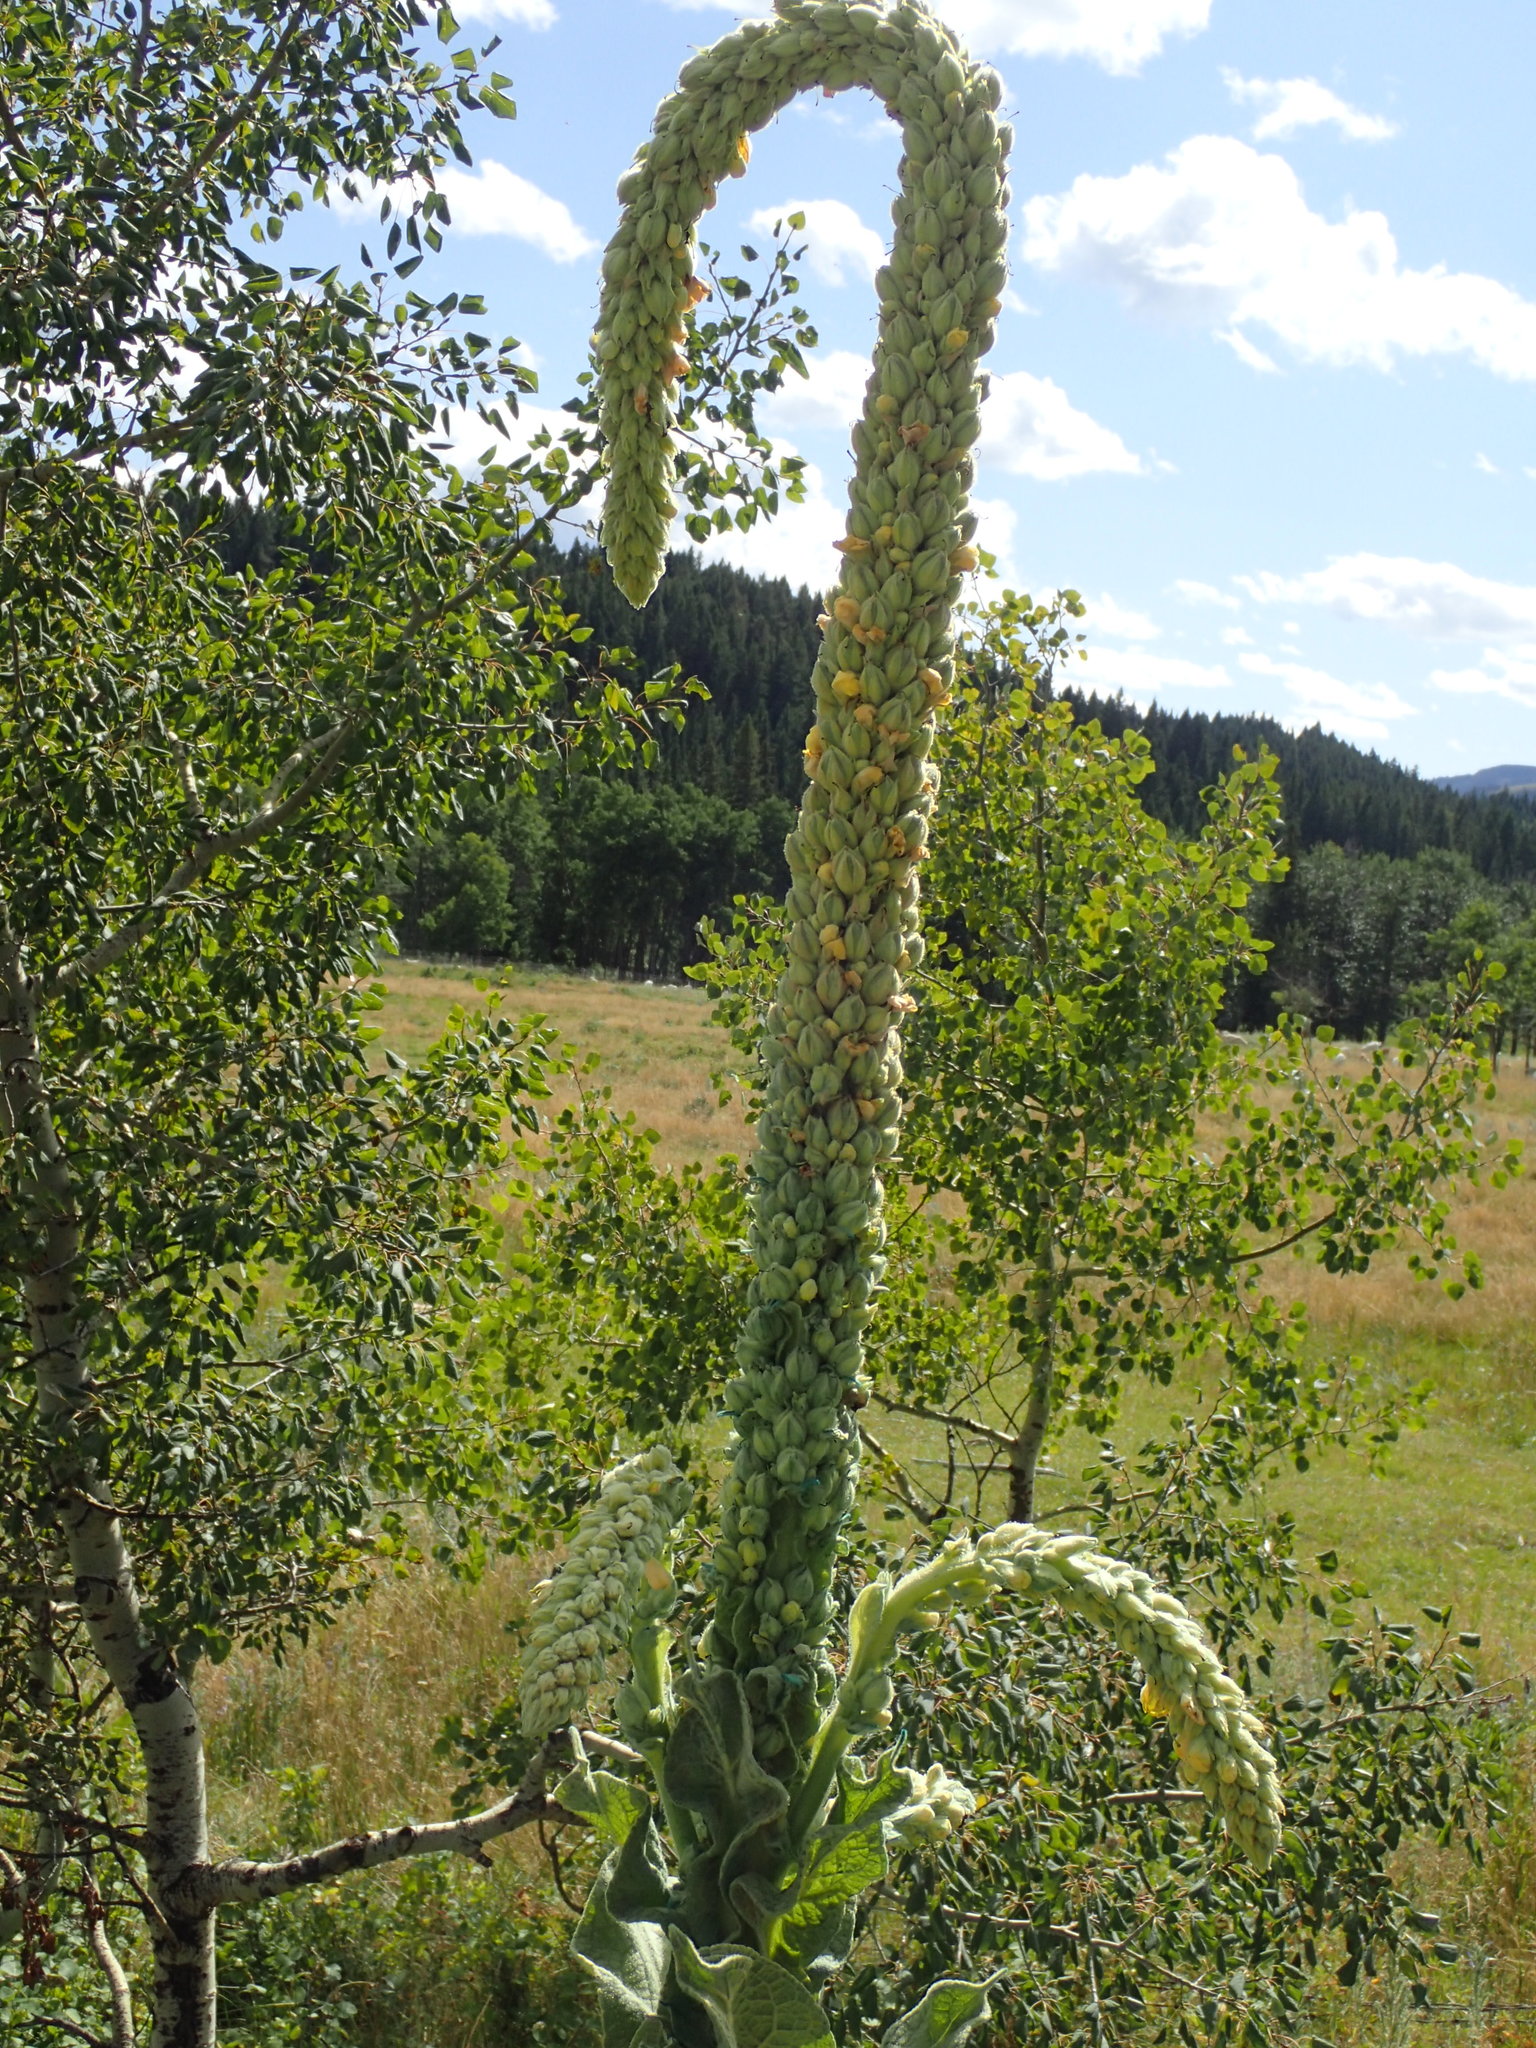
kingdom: Plantae
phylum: Tracheophyta
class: Magnoliopsida
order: Lamiales
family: Scrophulariaceae
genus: Verbascum
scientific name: Verbascum thapsus
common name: Common mullein
